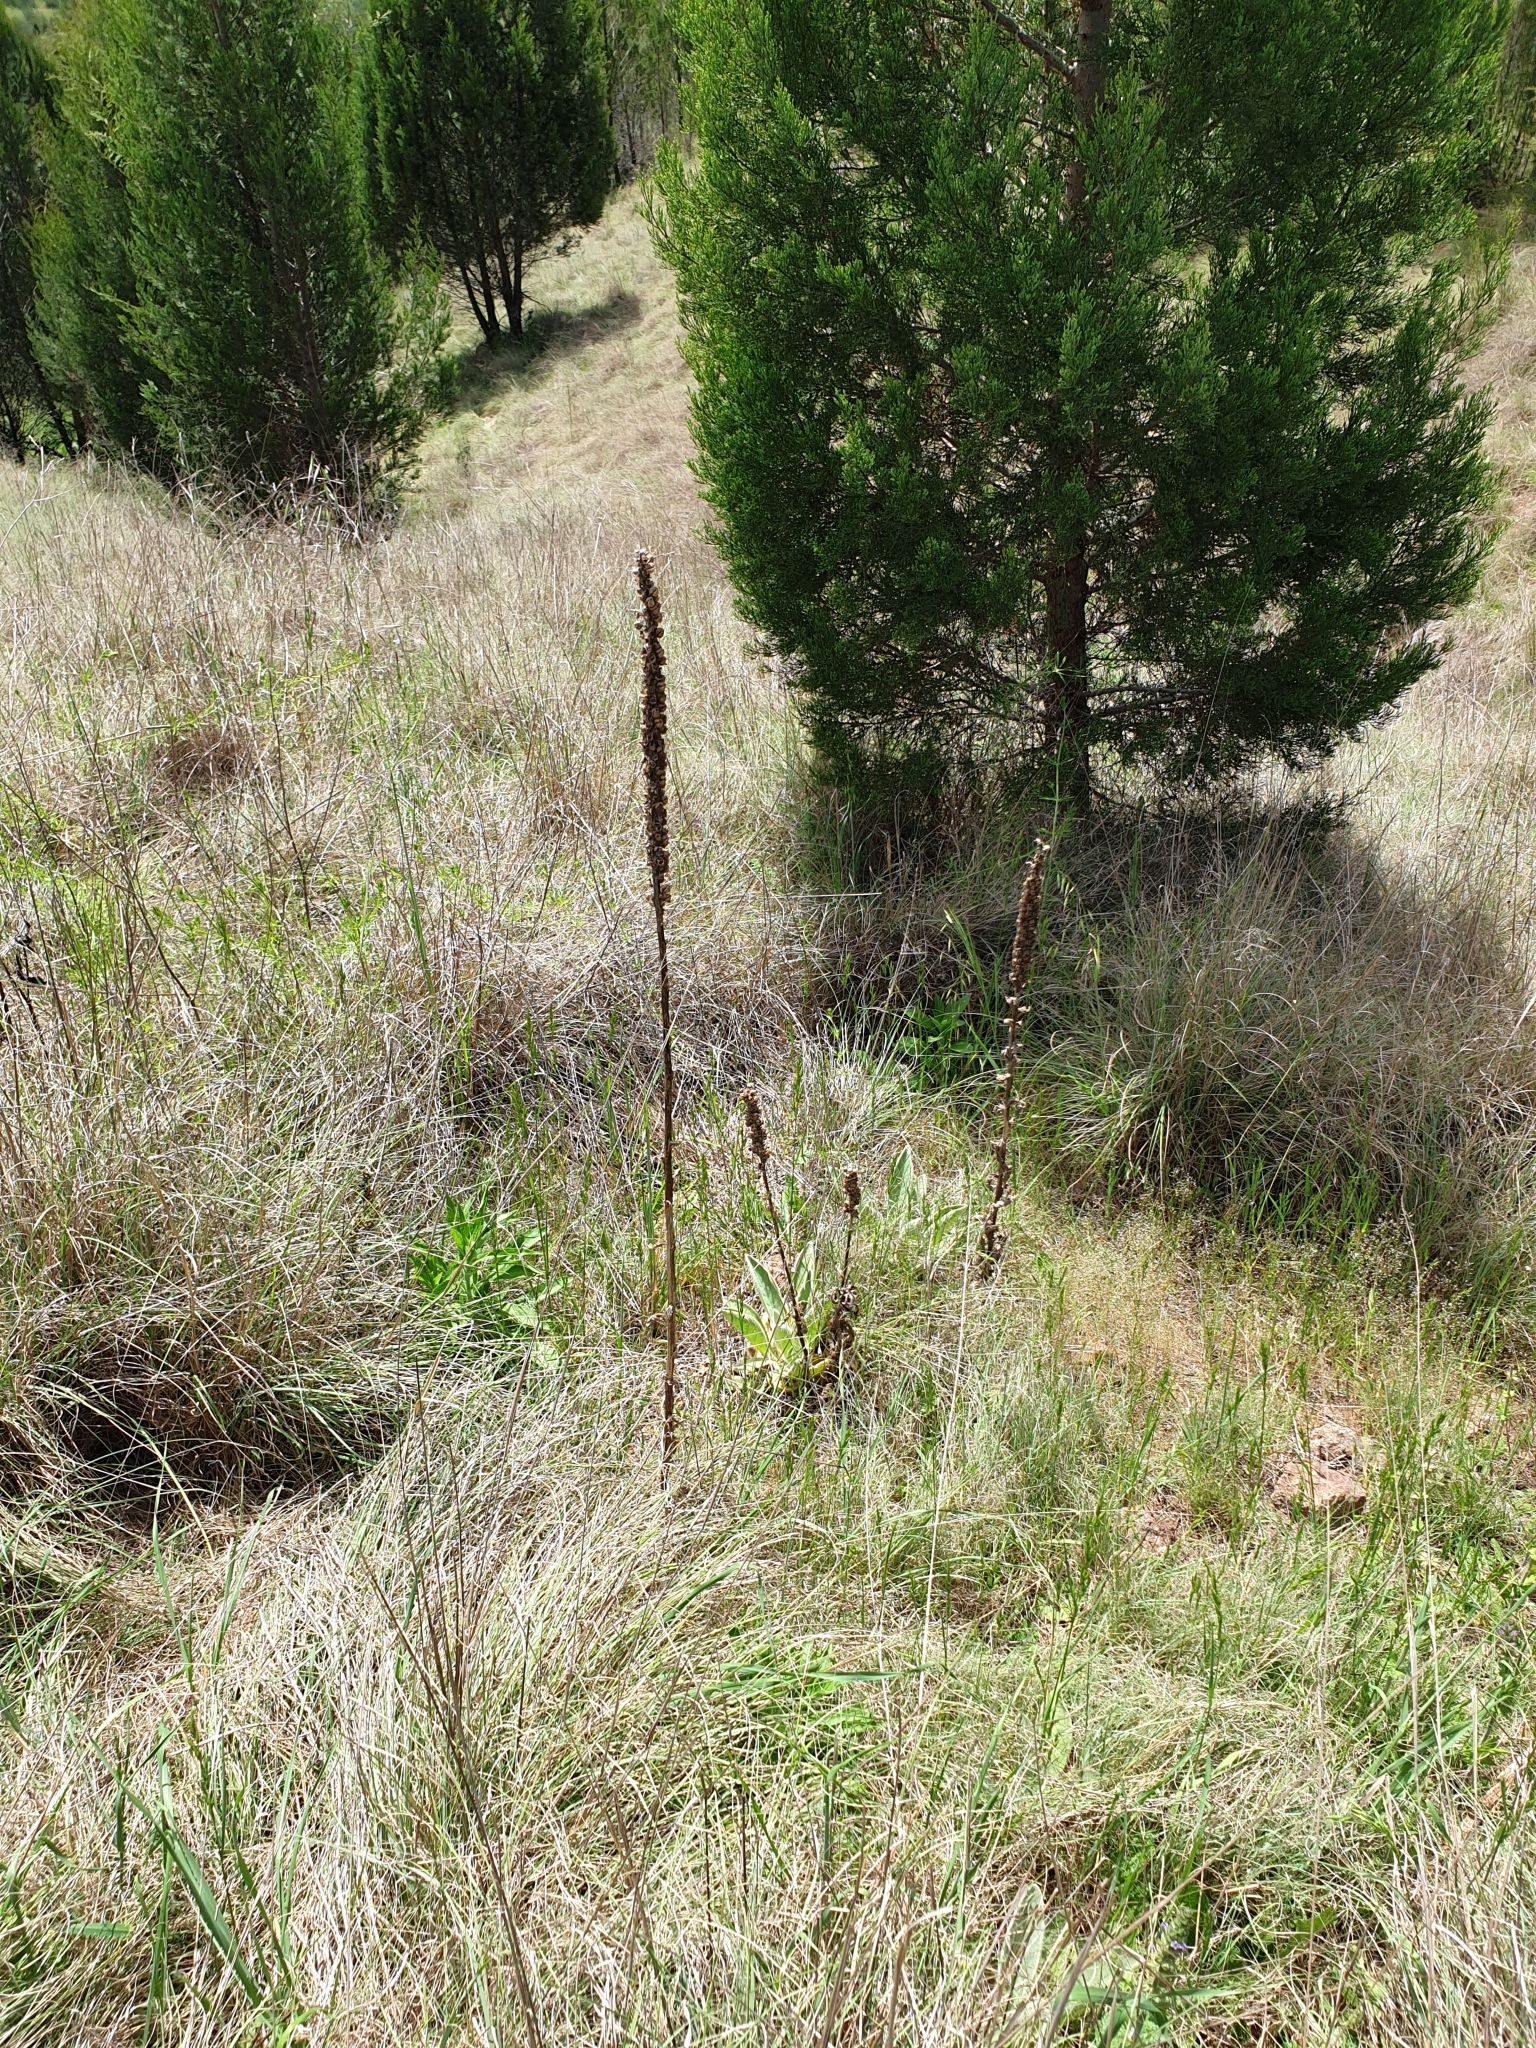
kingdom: Plantae
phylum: Tracheophyta
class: Magnoliopsida
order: Lamiales
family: Scrophulariaceae
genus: Verbascum
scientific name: Verbascum thapsus
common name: Common mullein
